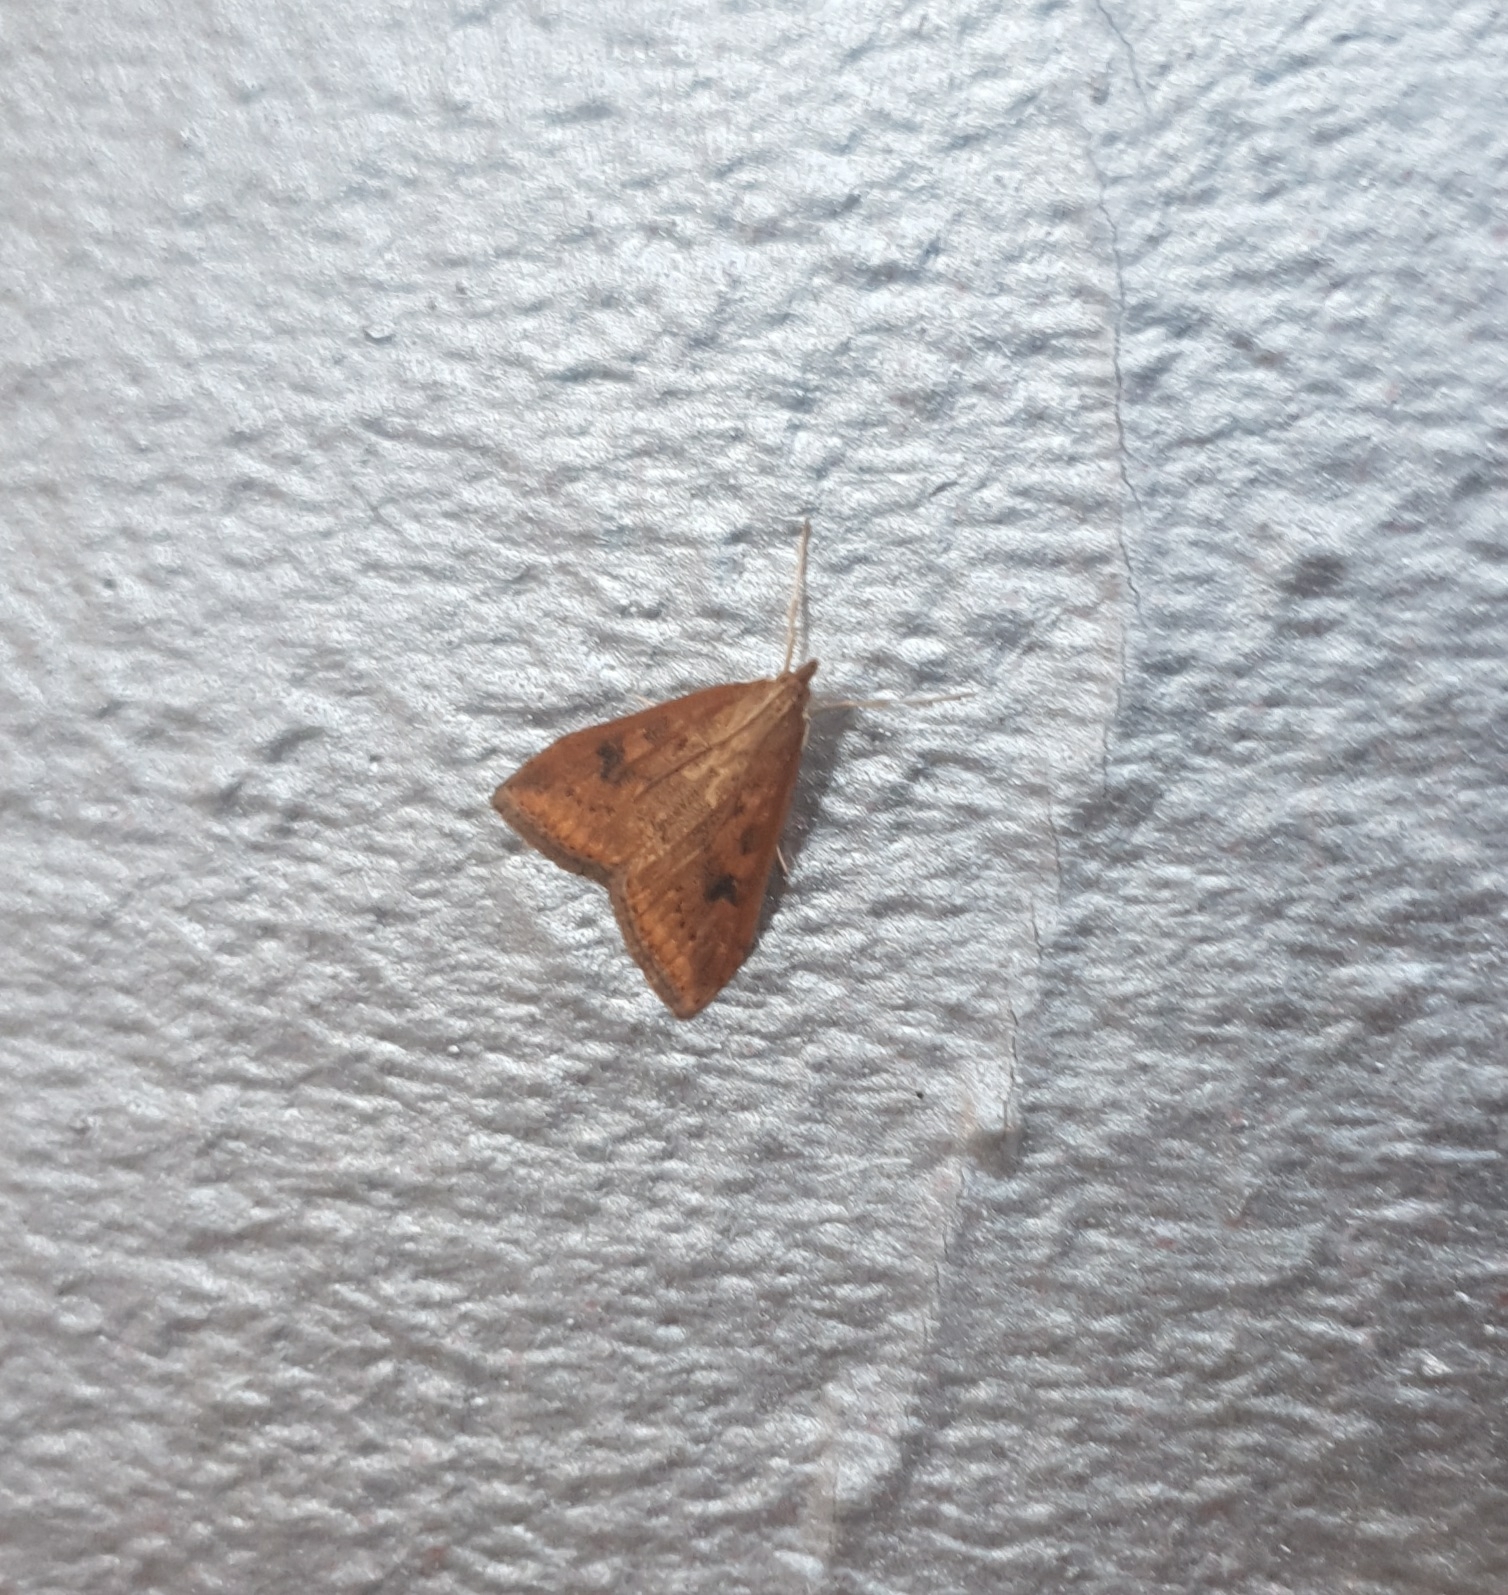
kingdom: Animalia
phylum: Arthropoda
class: Insecta
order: Lepidoptera
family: Crambidae
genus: Udea
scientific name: Udea ferrugalis
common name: Rusty dot
